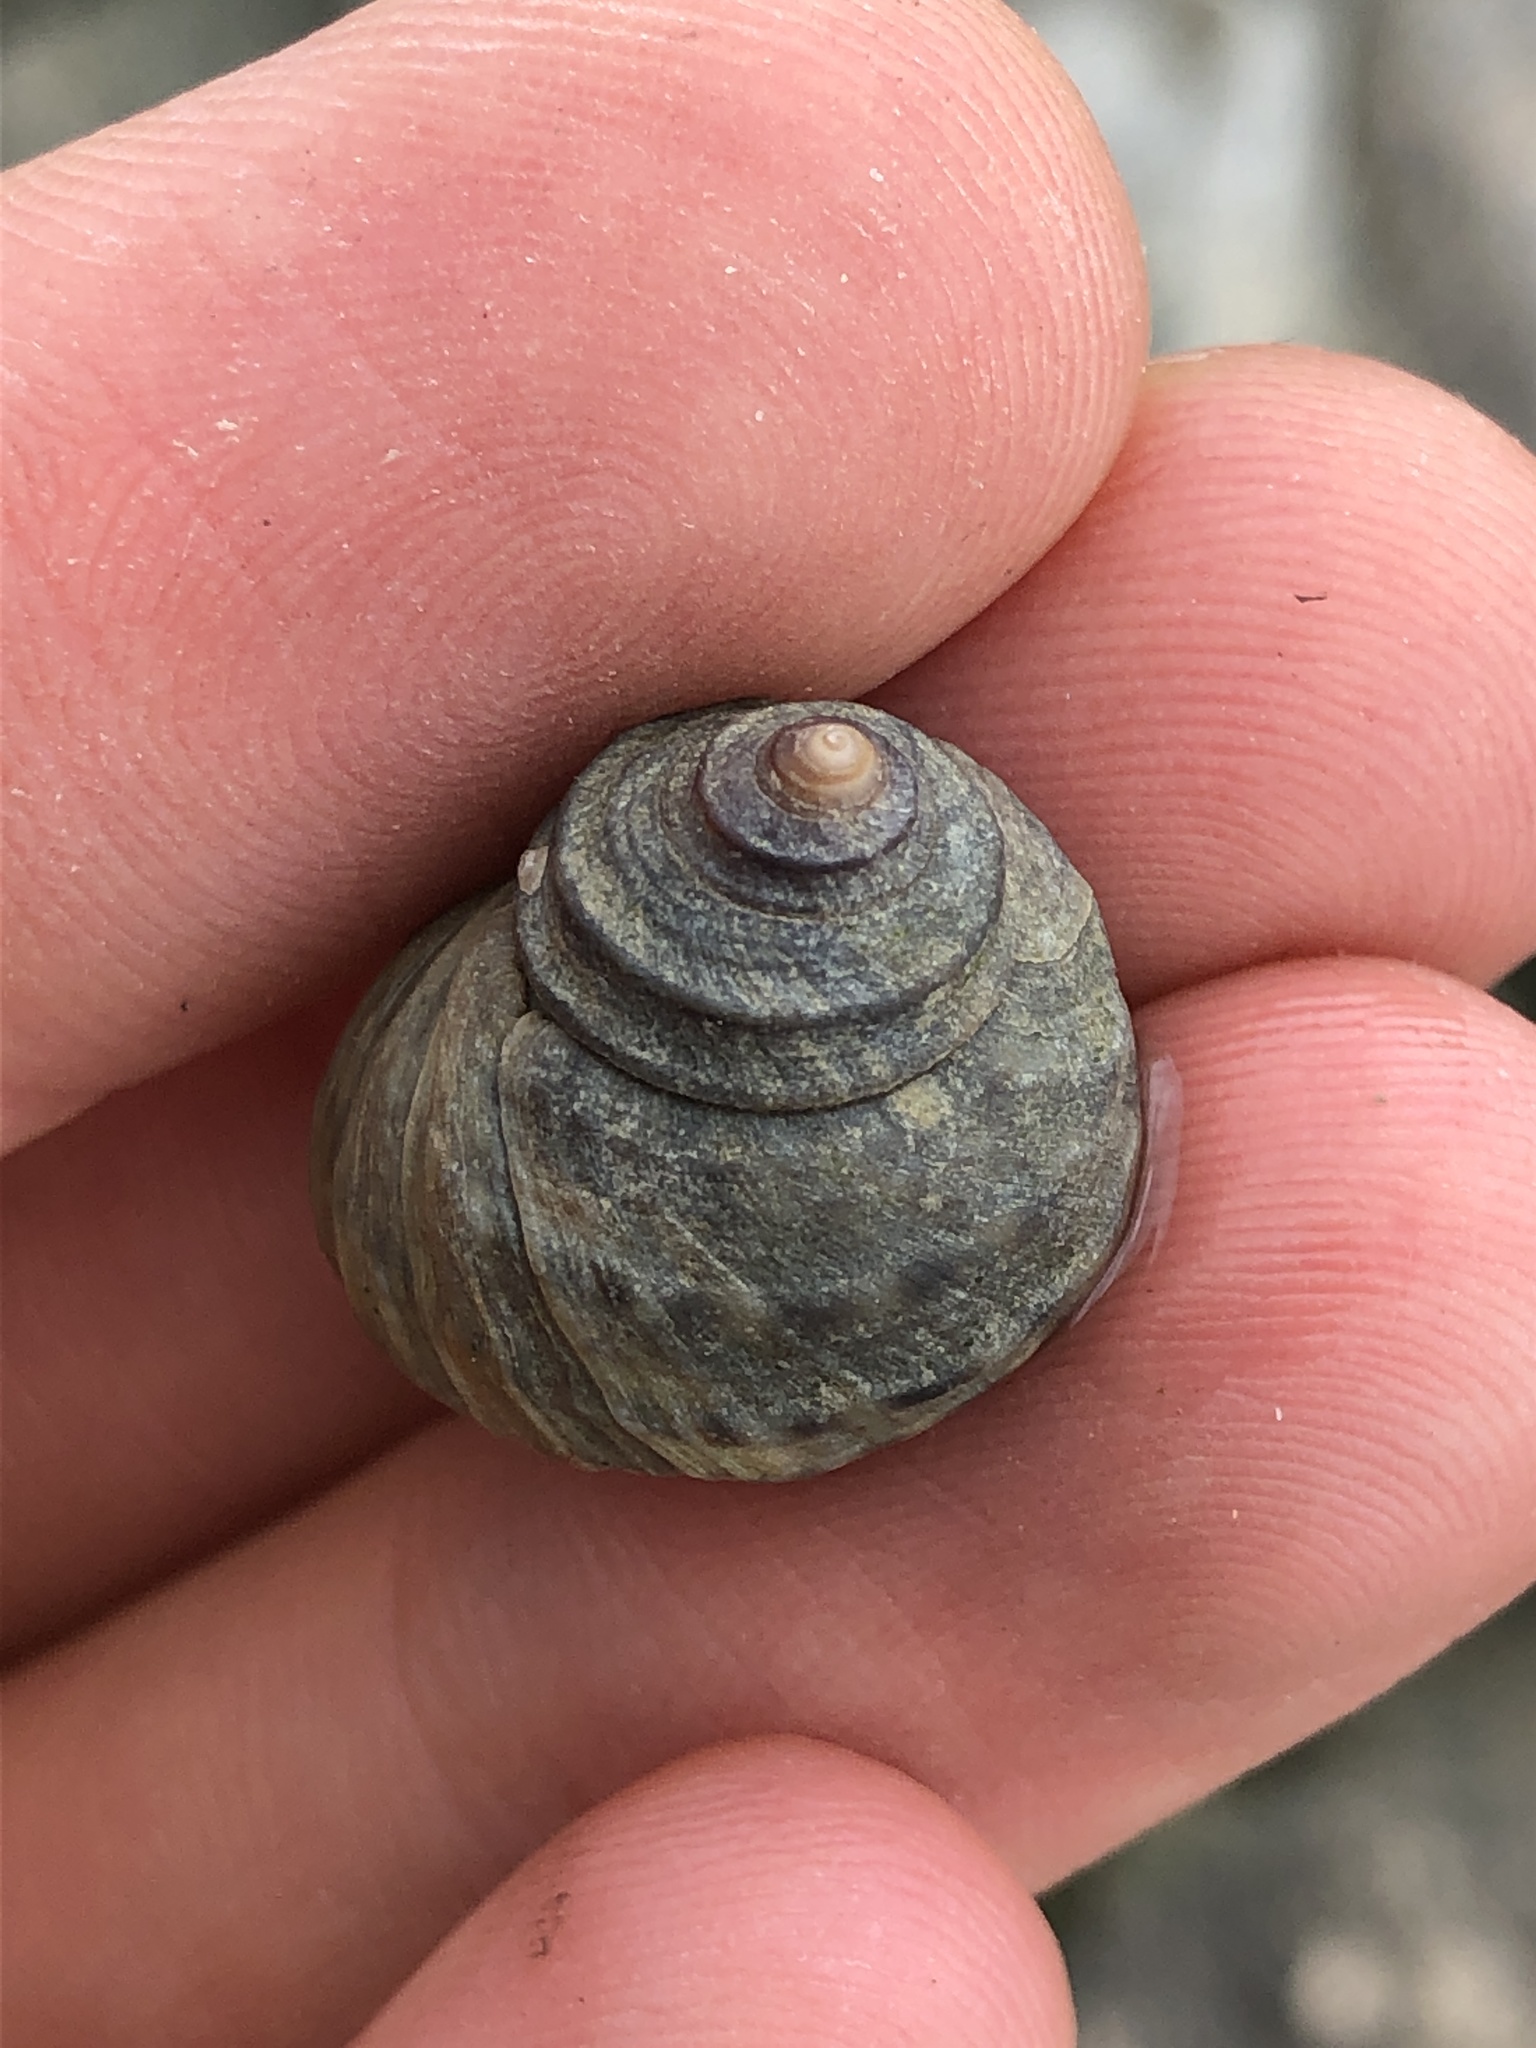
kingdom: Animalia
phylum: Mollusca
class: Gastropoda
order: Littorinimorpha
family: Littorinidae
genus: Littorina
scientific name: Littorina brevicula
